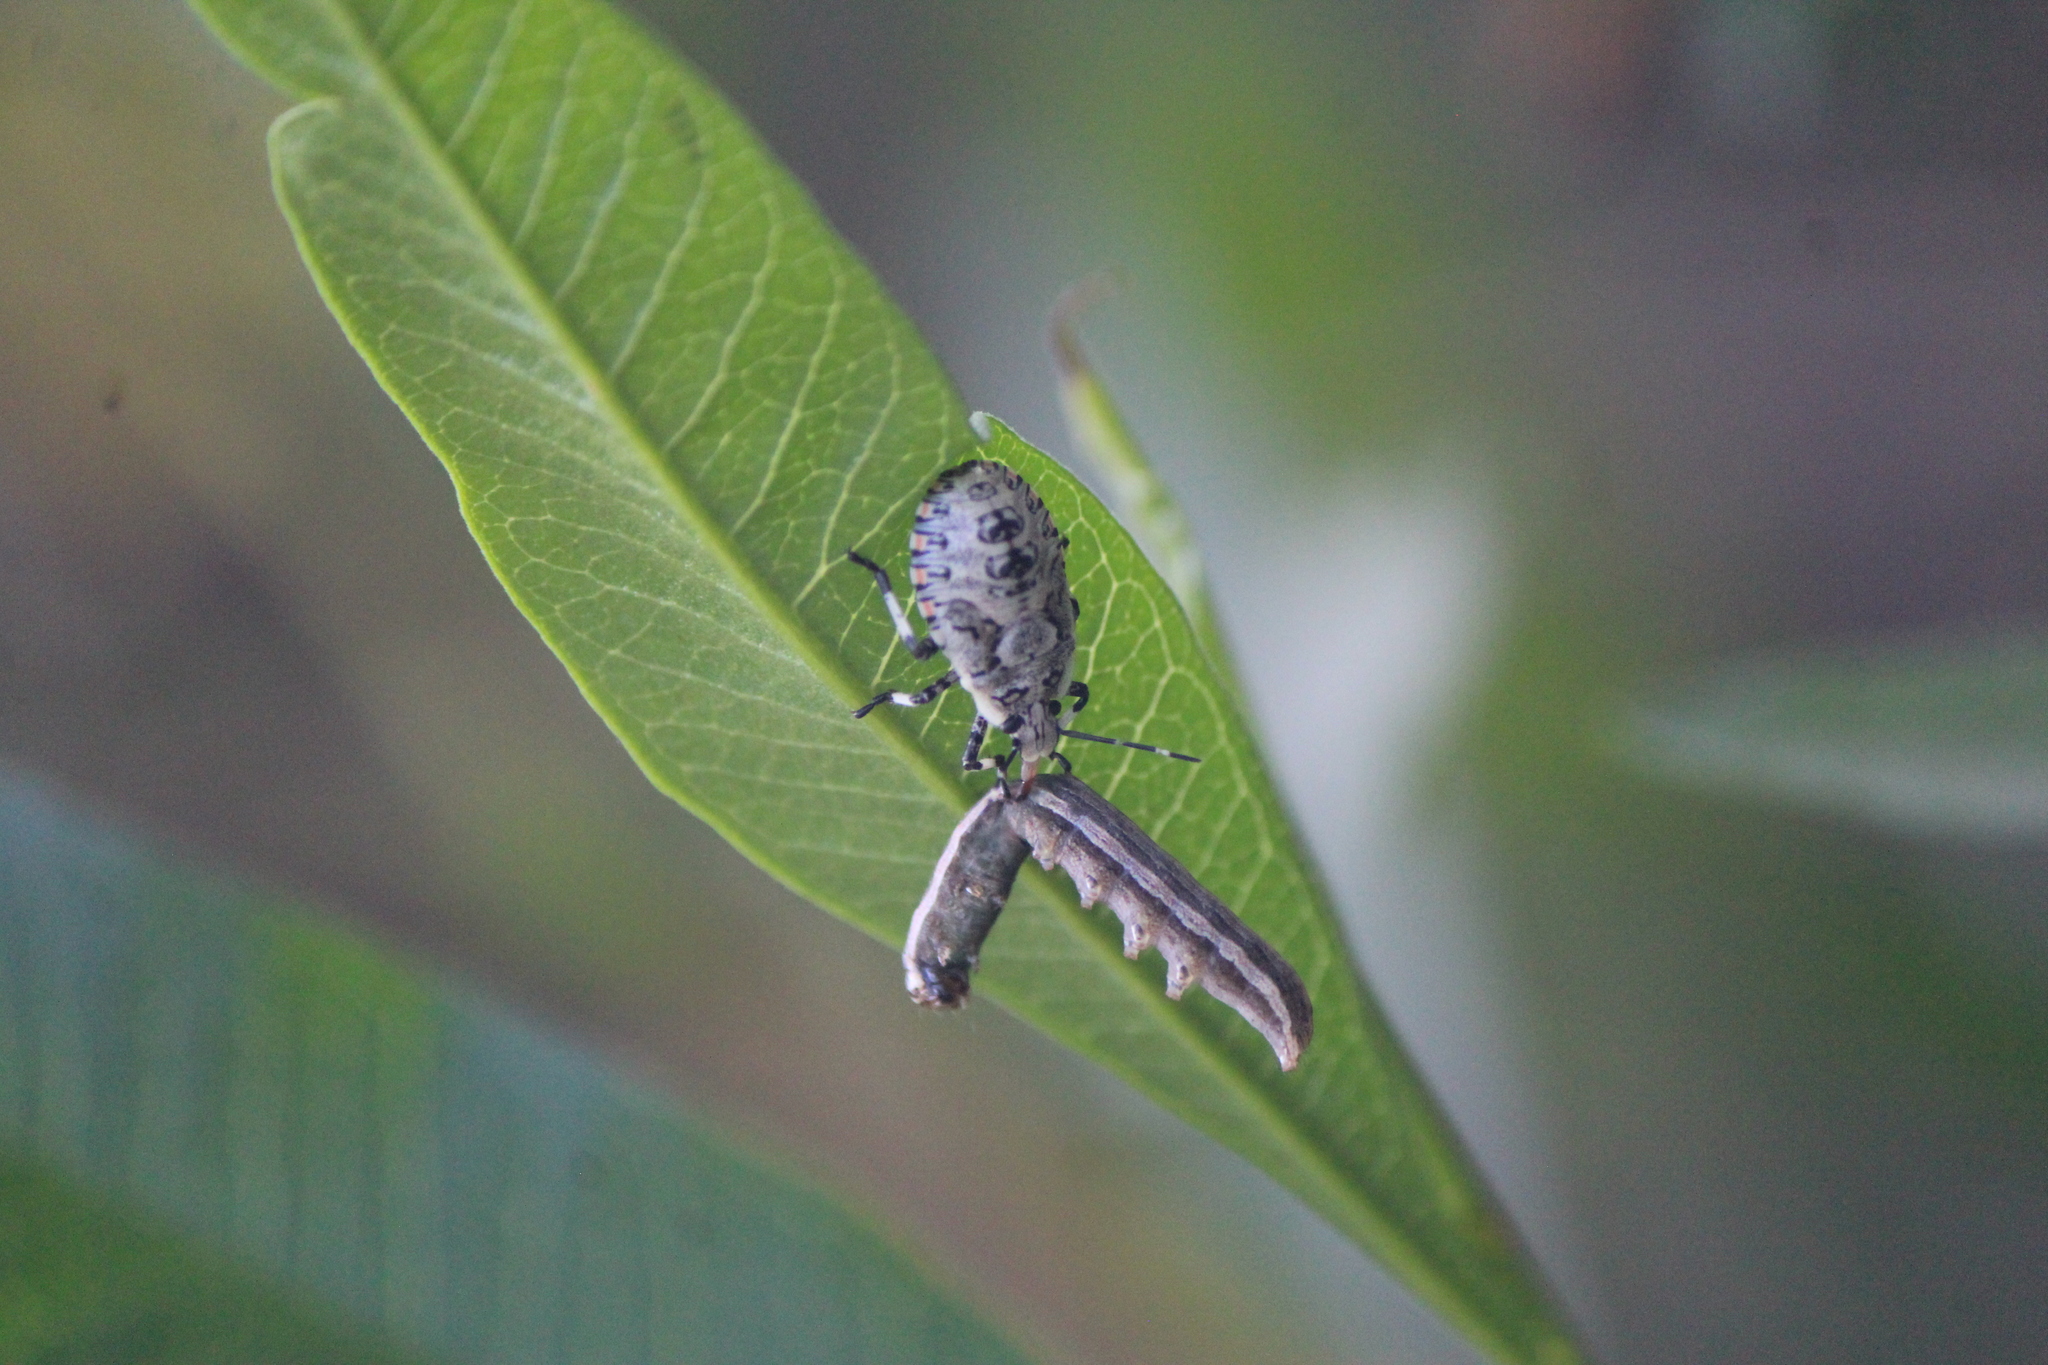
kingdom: Animalia
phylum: Arthropoda
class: Insecta
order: Hemiptera
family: Pentatomidae
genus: Apateticus
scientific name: Apateticus lineolatus
